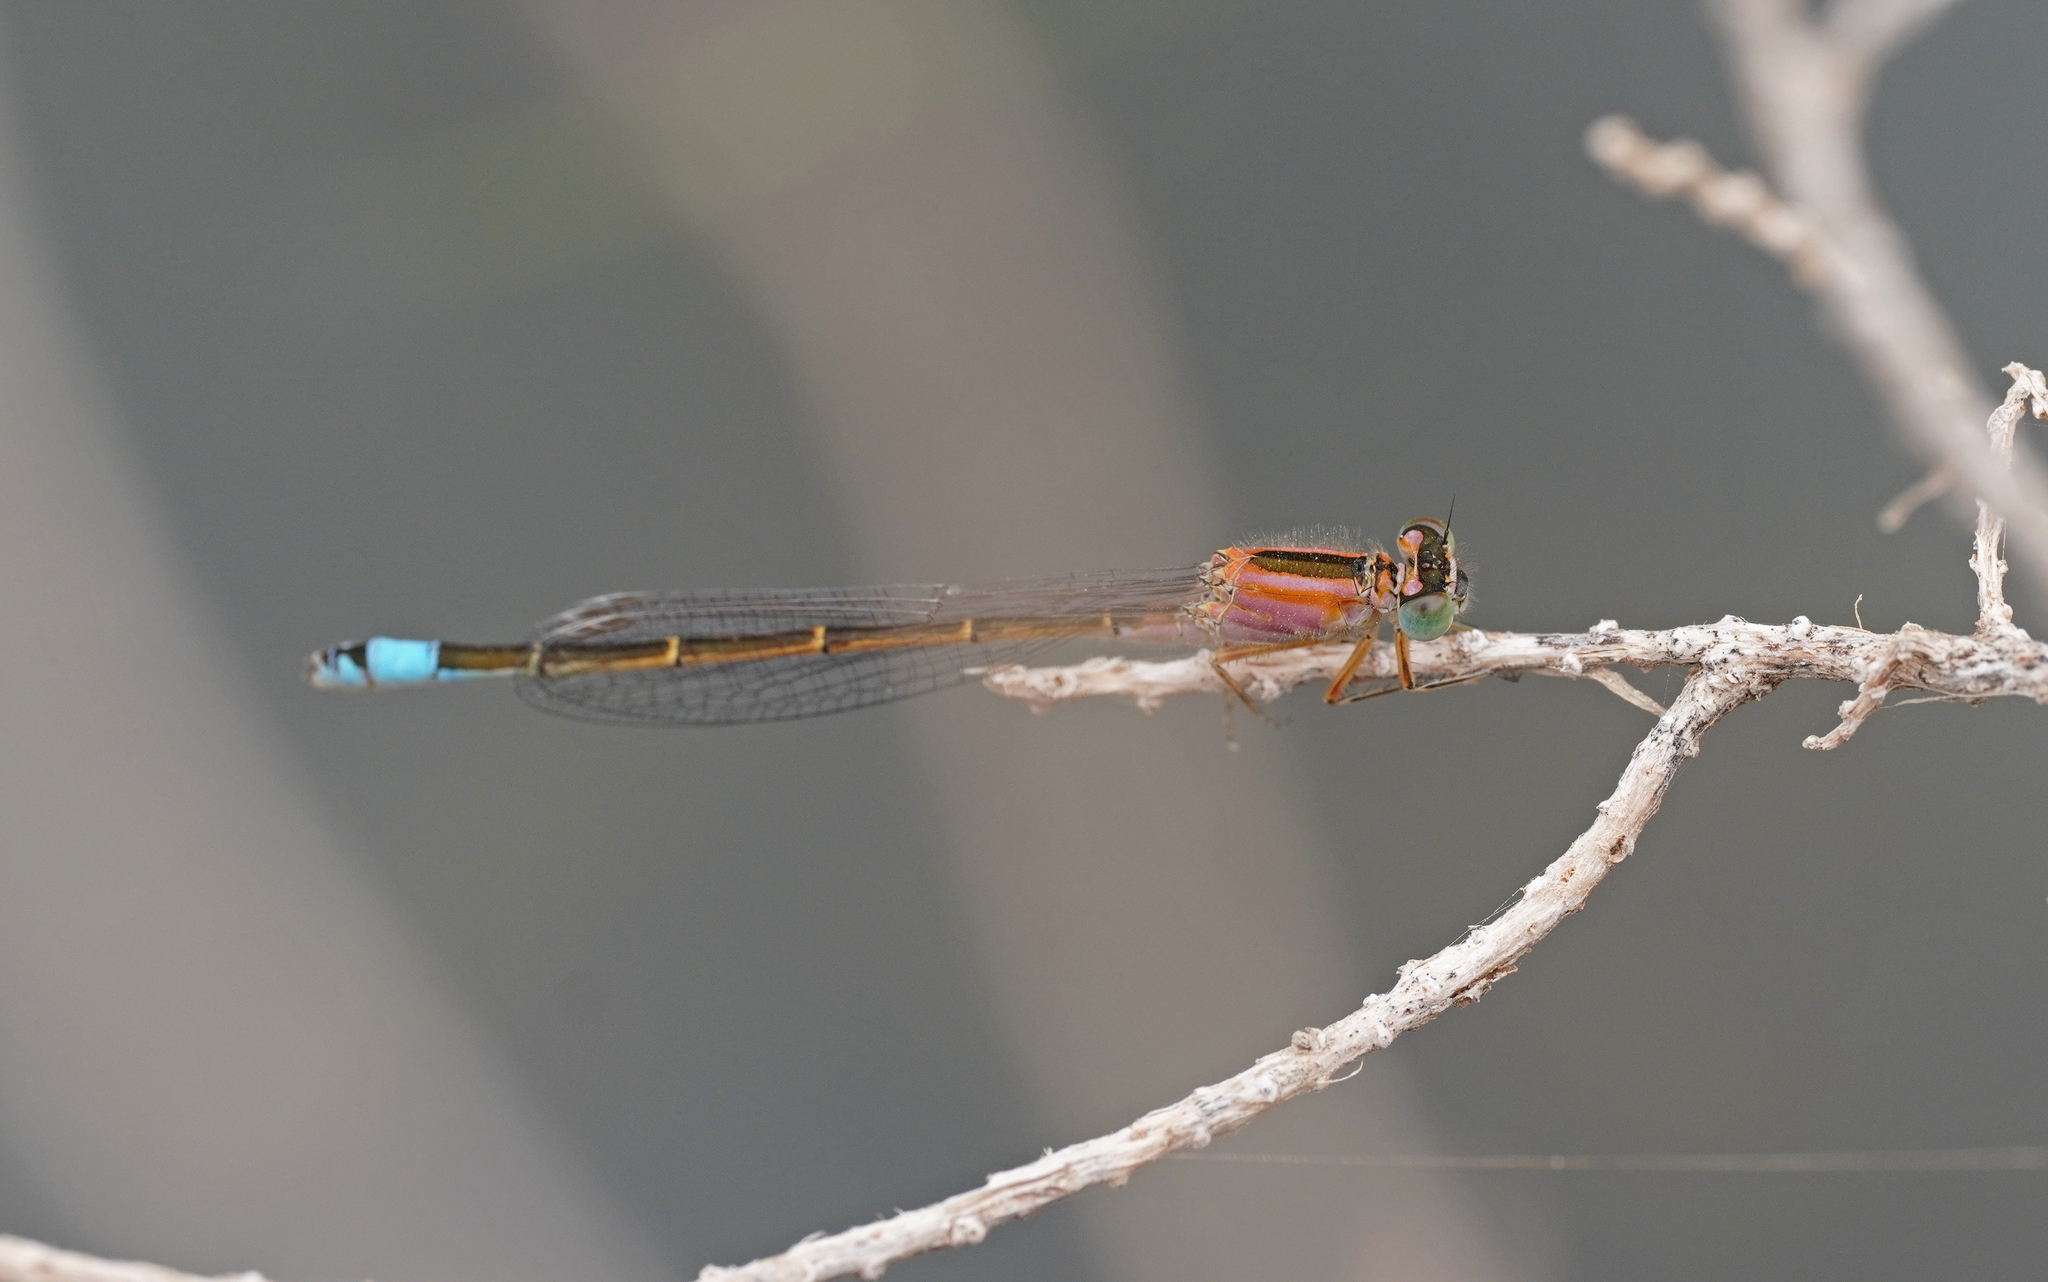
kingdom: Animalia
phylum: Arthropoda
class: Insecta
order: Odonata
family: Coenagrionidae
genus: Ischnura
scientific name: Ischnura saharensis
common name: Sahara bluetail
